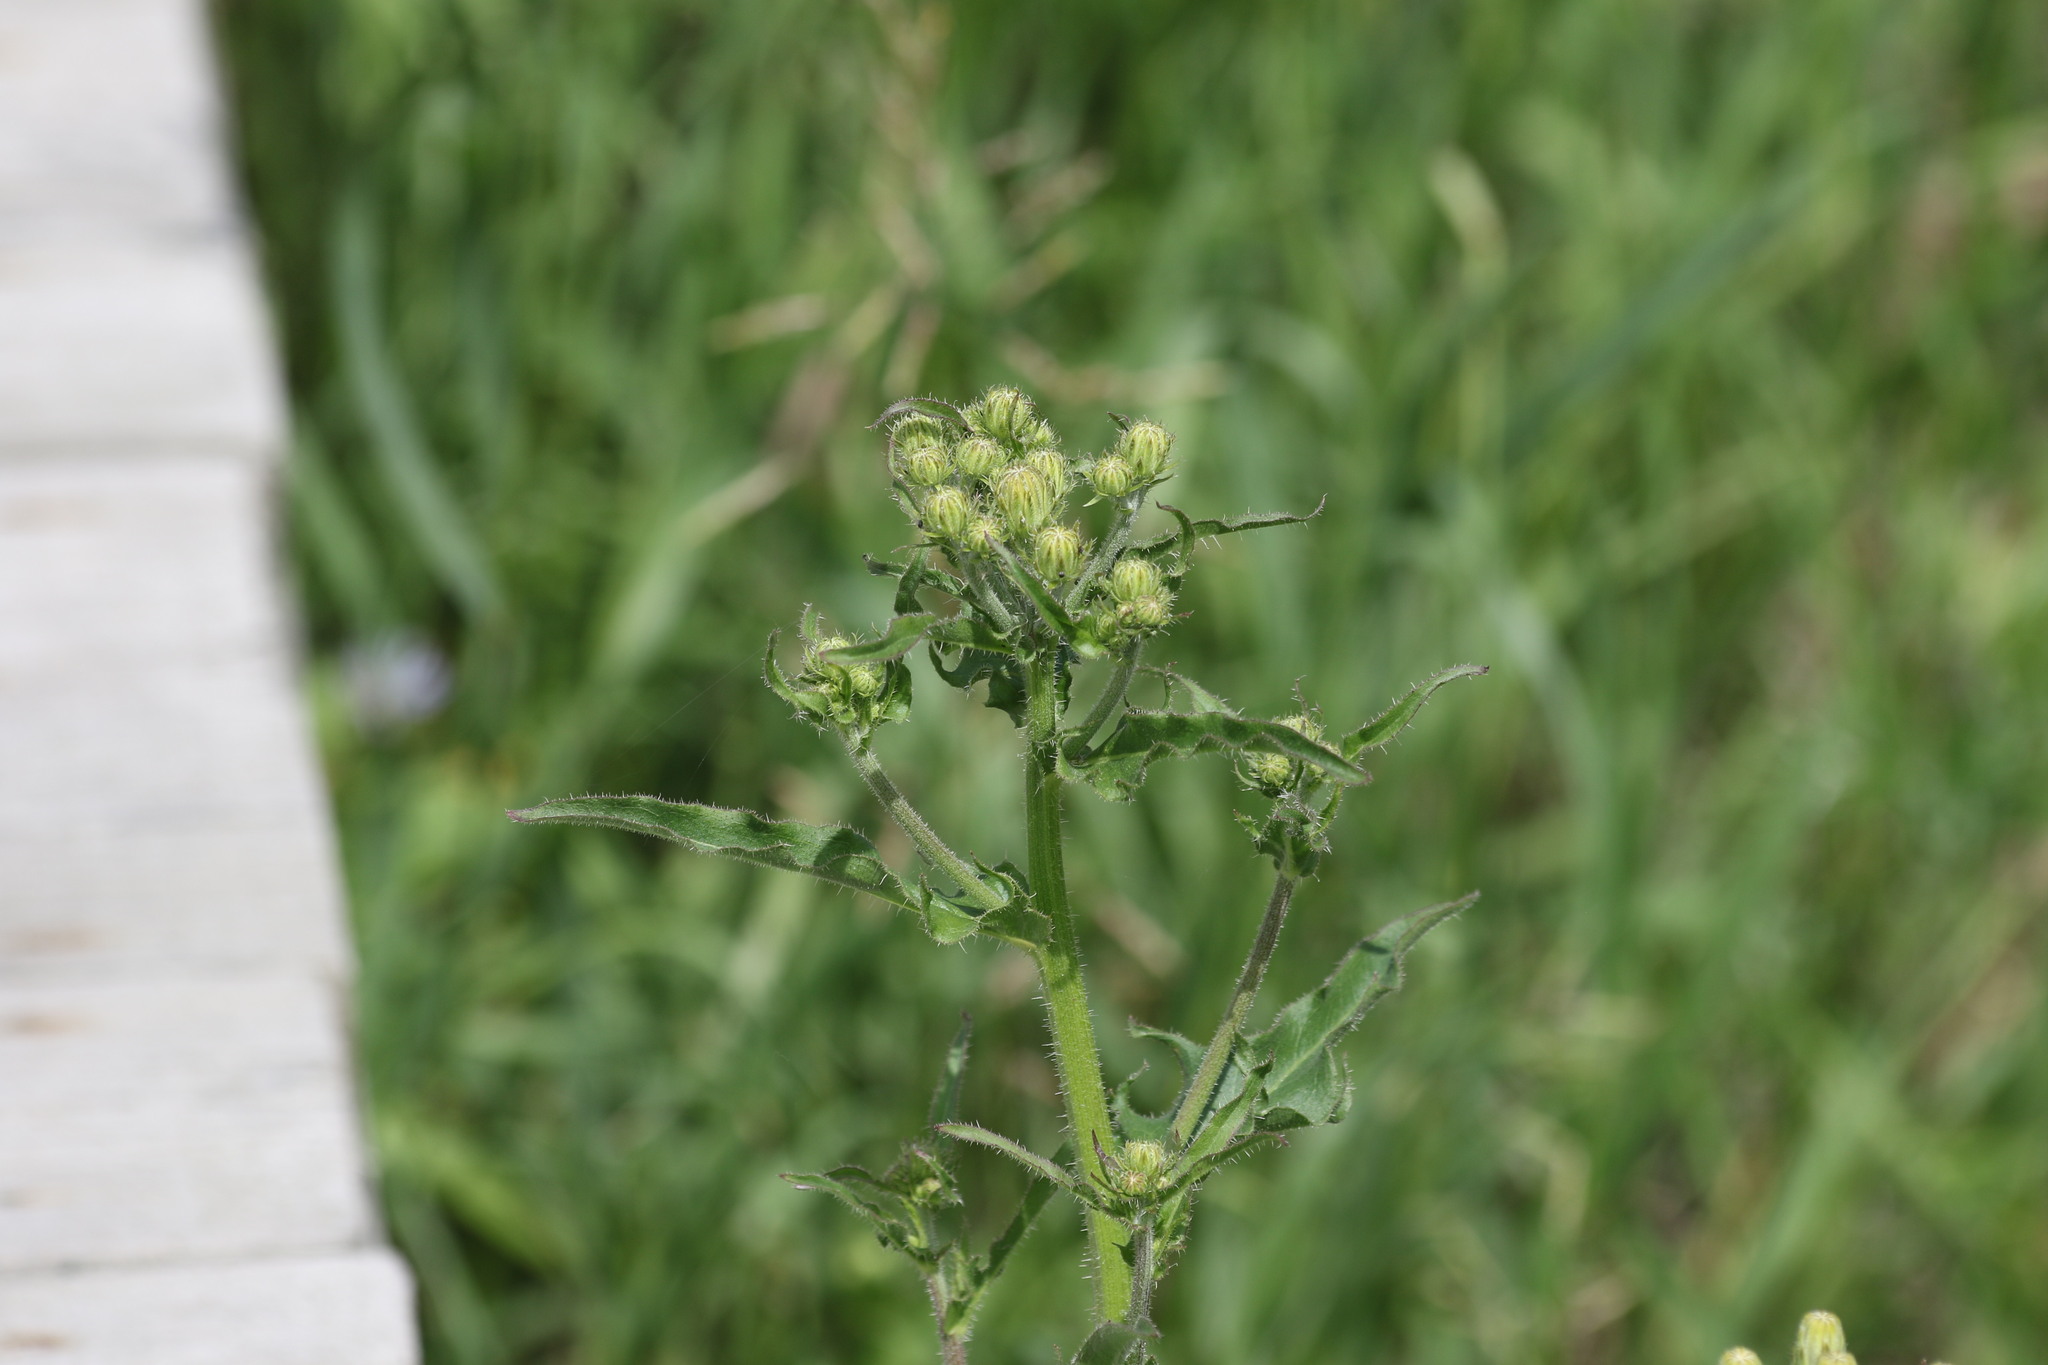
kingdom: Plantae
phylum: Tracheophyta
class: Magnoliopsida
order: Asterales
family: Asteraceae
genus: Picris
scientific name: Picris hieracioides
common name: Hawkweed oxtongue
